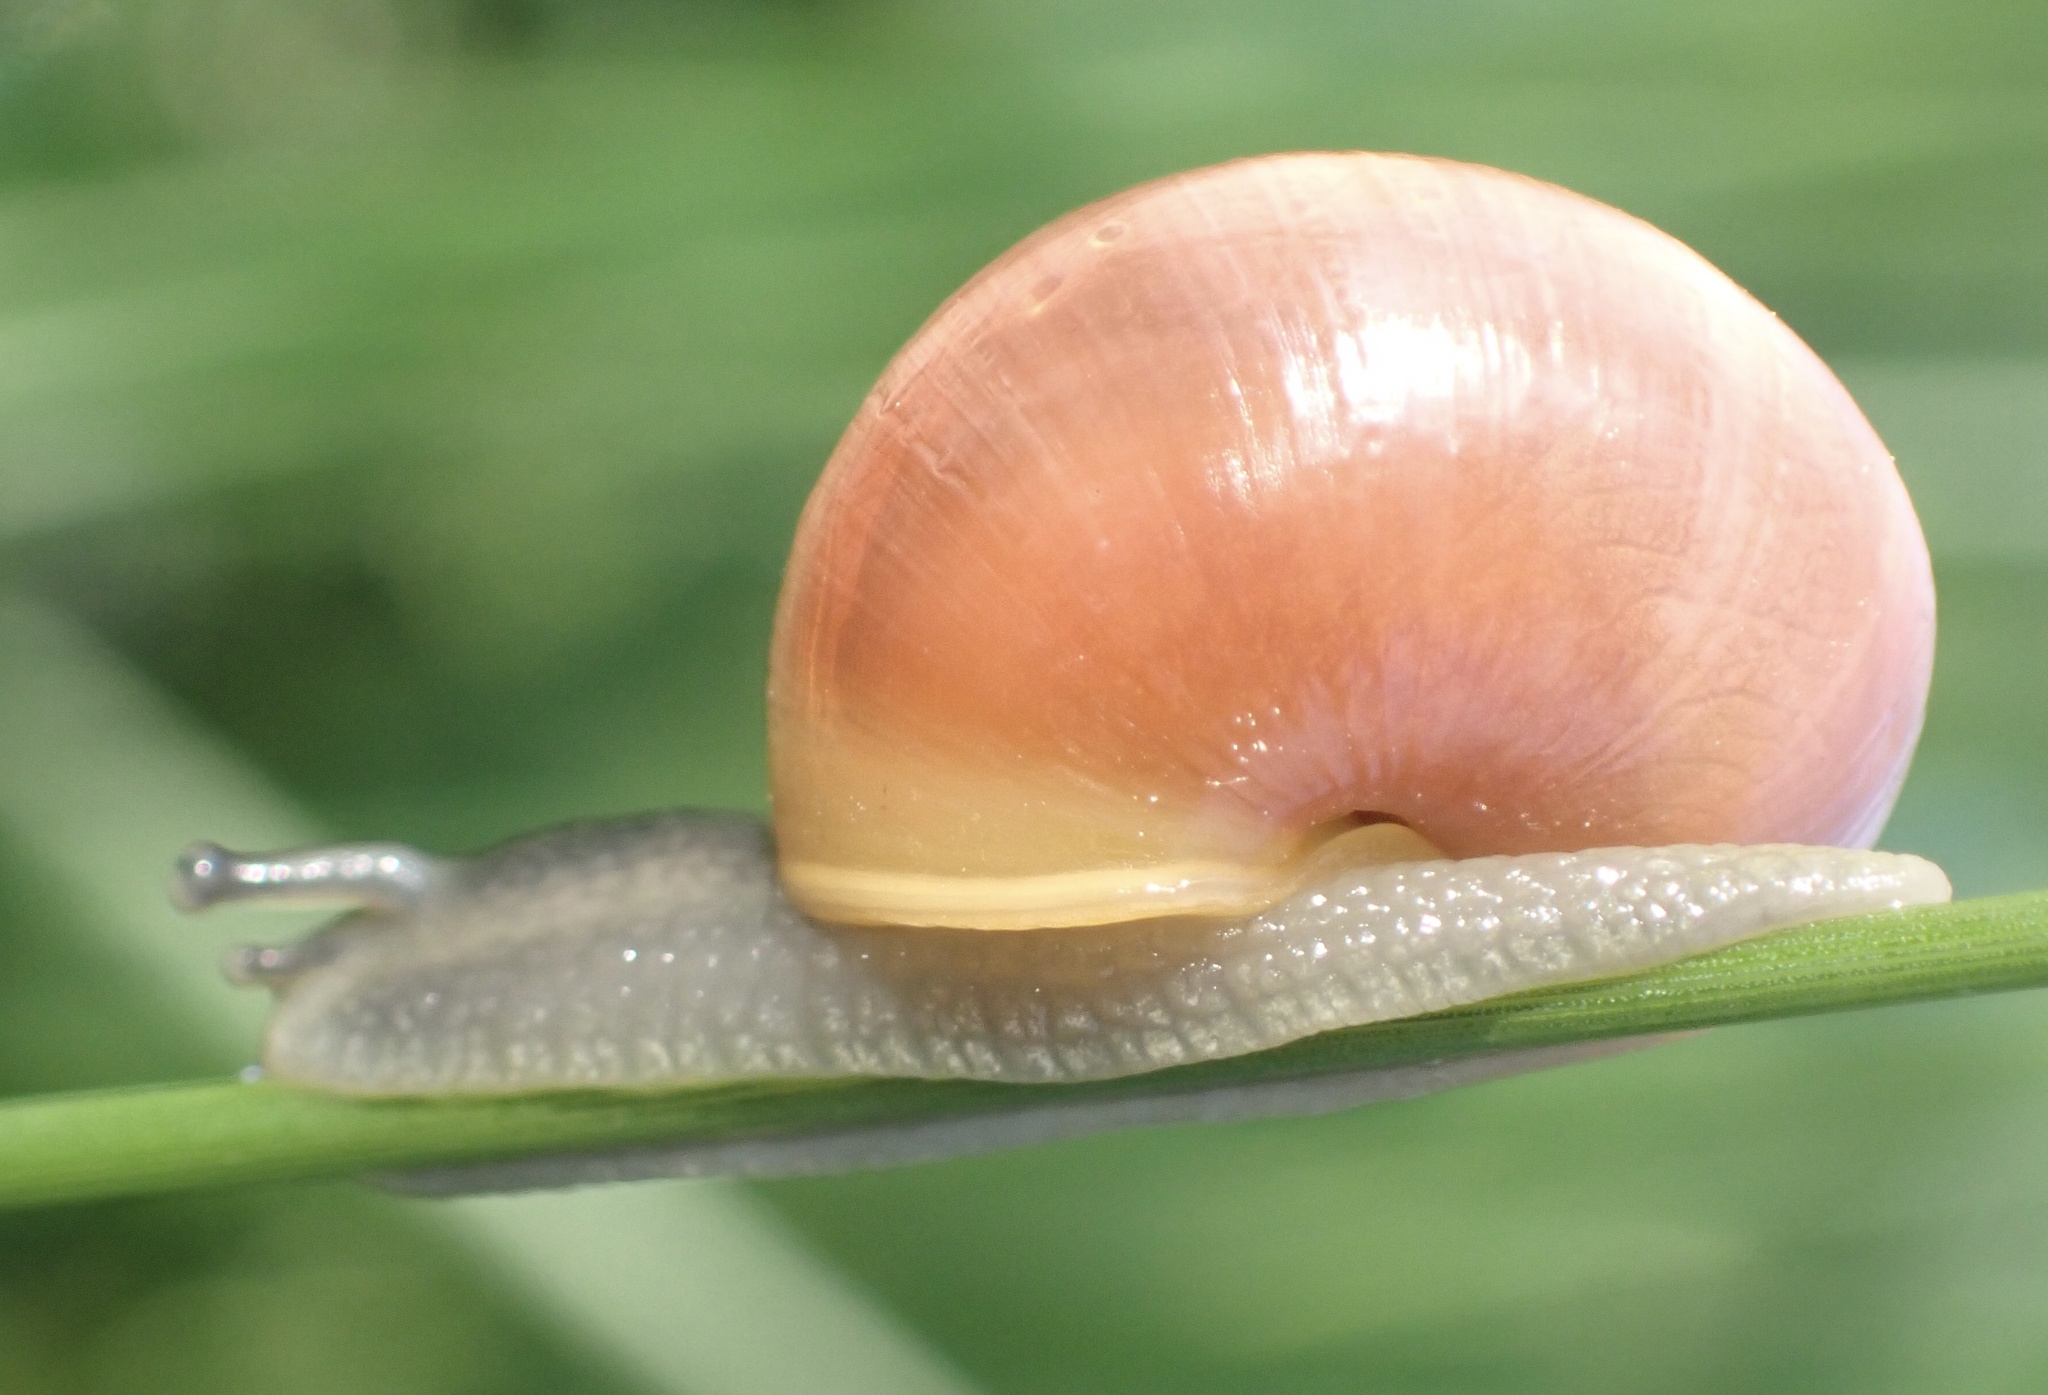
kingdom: Animalia
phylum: Mollusca
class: Gastropoda
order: Stylommatophora
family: Helicidae
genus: Cepaea
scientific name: Cepaea
